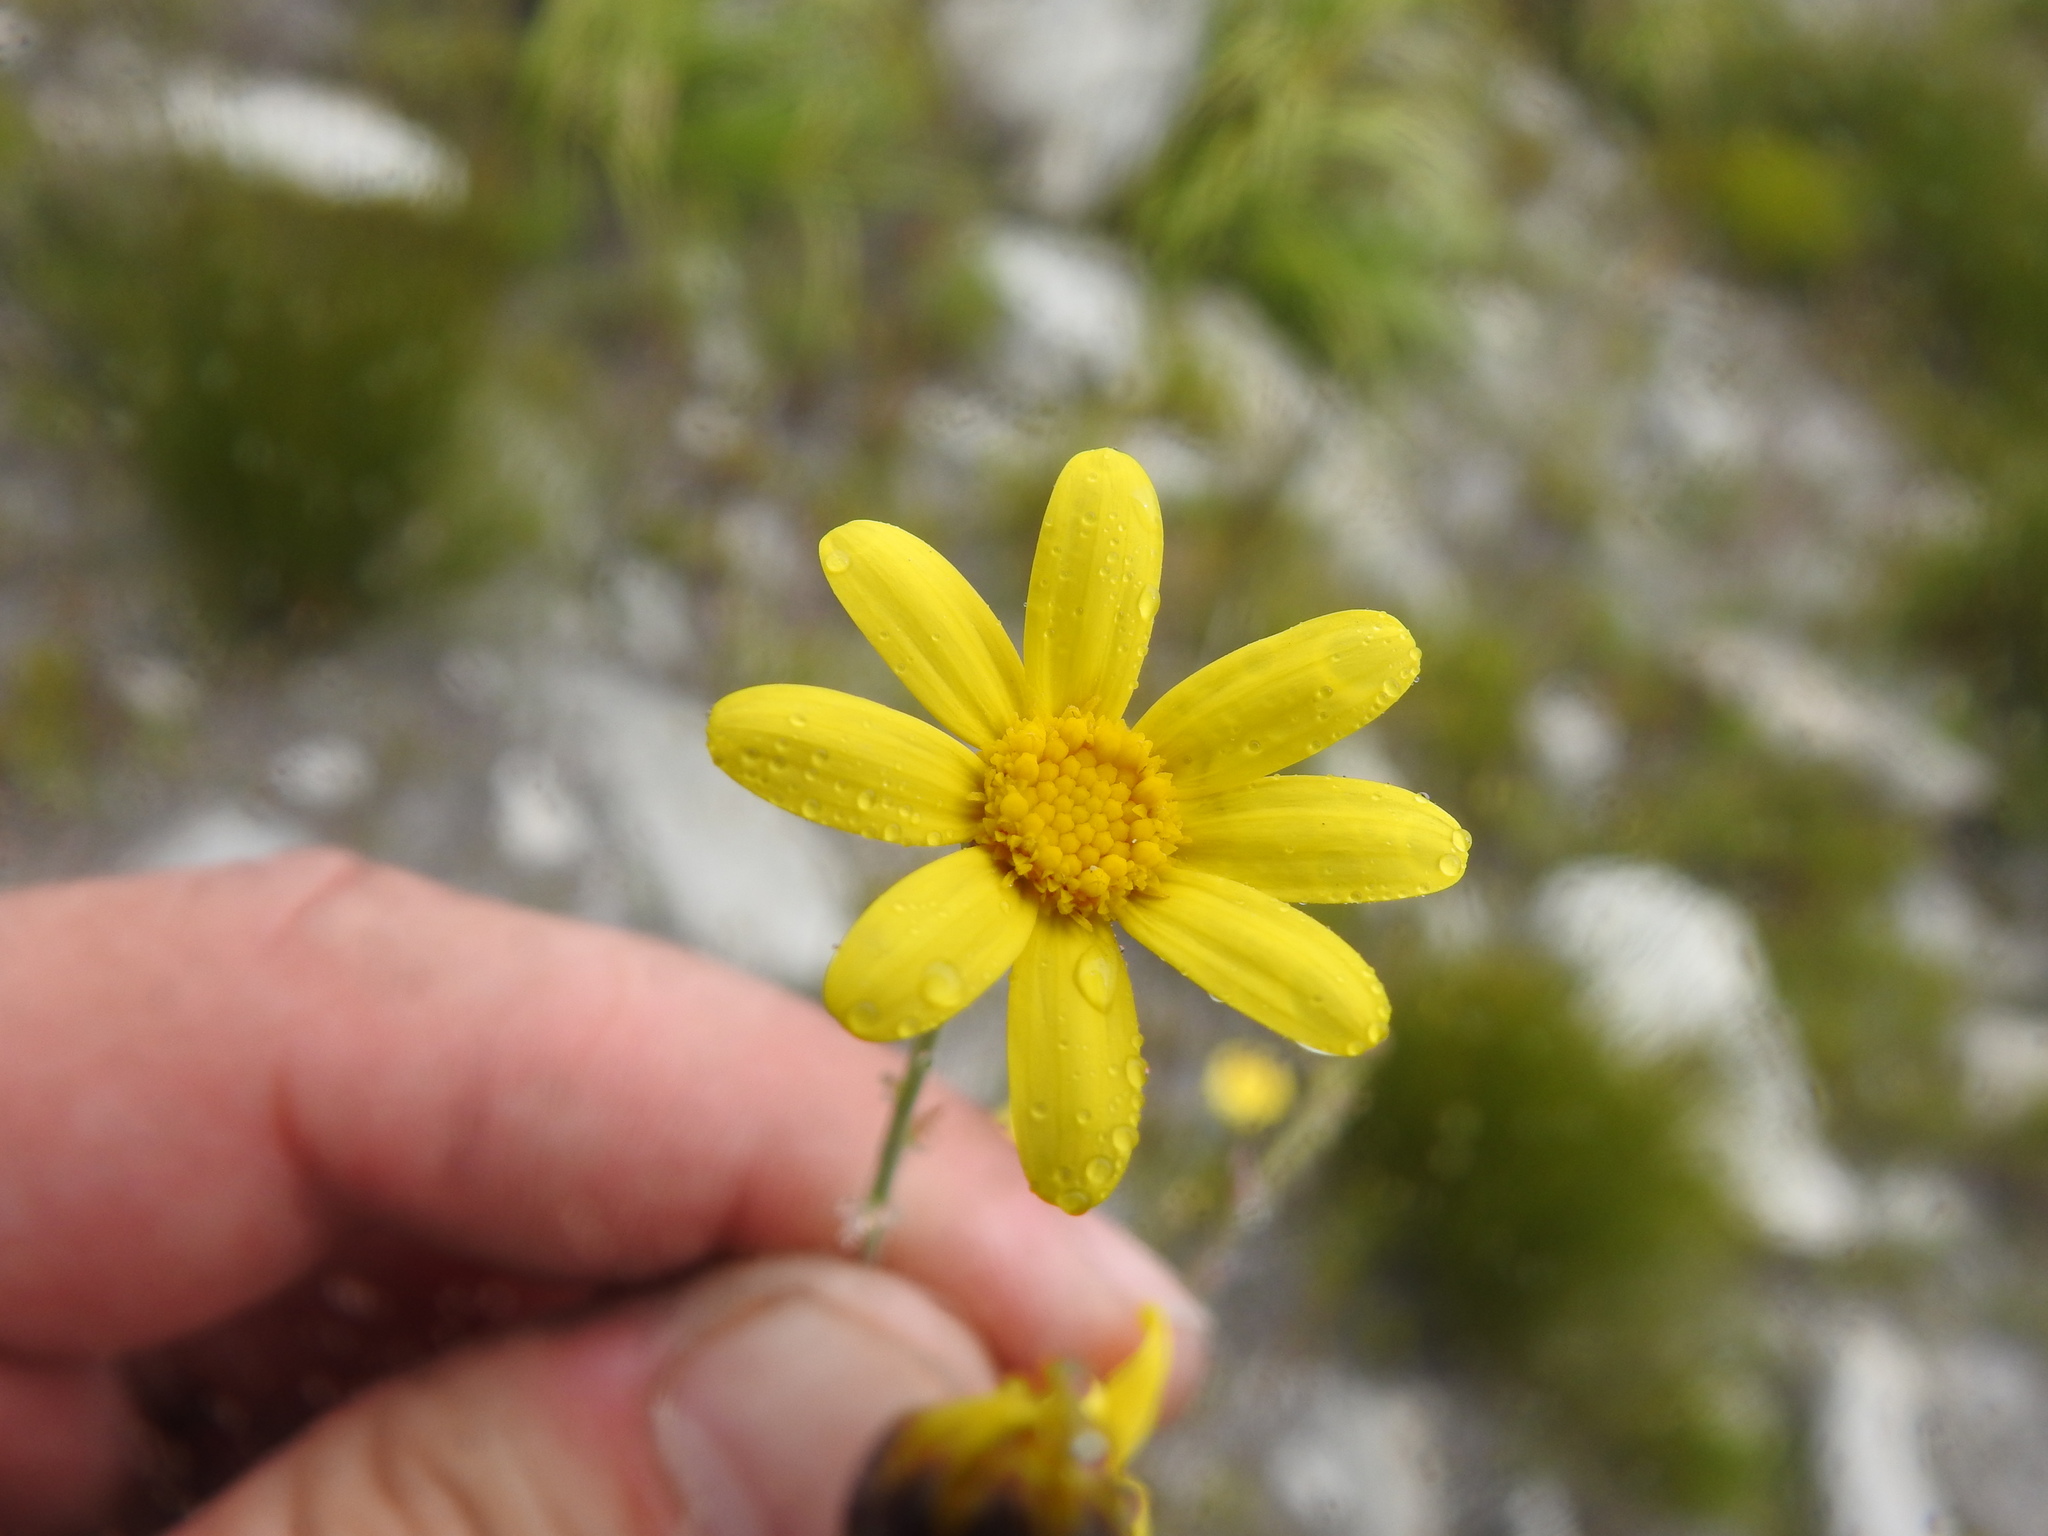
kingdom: Plantae
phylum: Tracheophyta
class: Magnoliopsida
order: Asterales
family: Asteraceae
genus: Othonna
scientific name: Othonna quinquedentata
